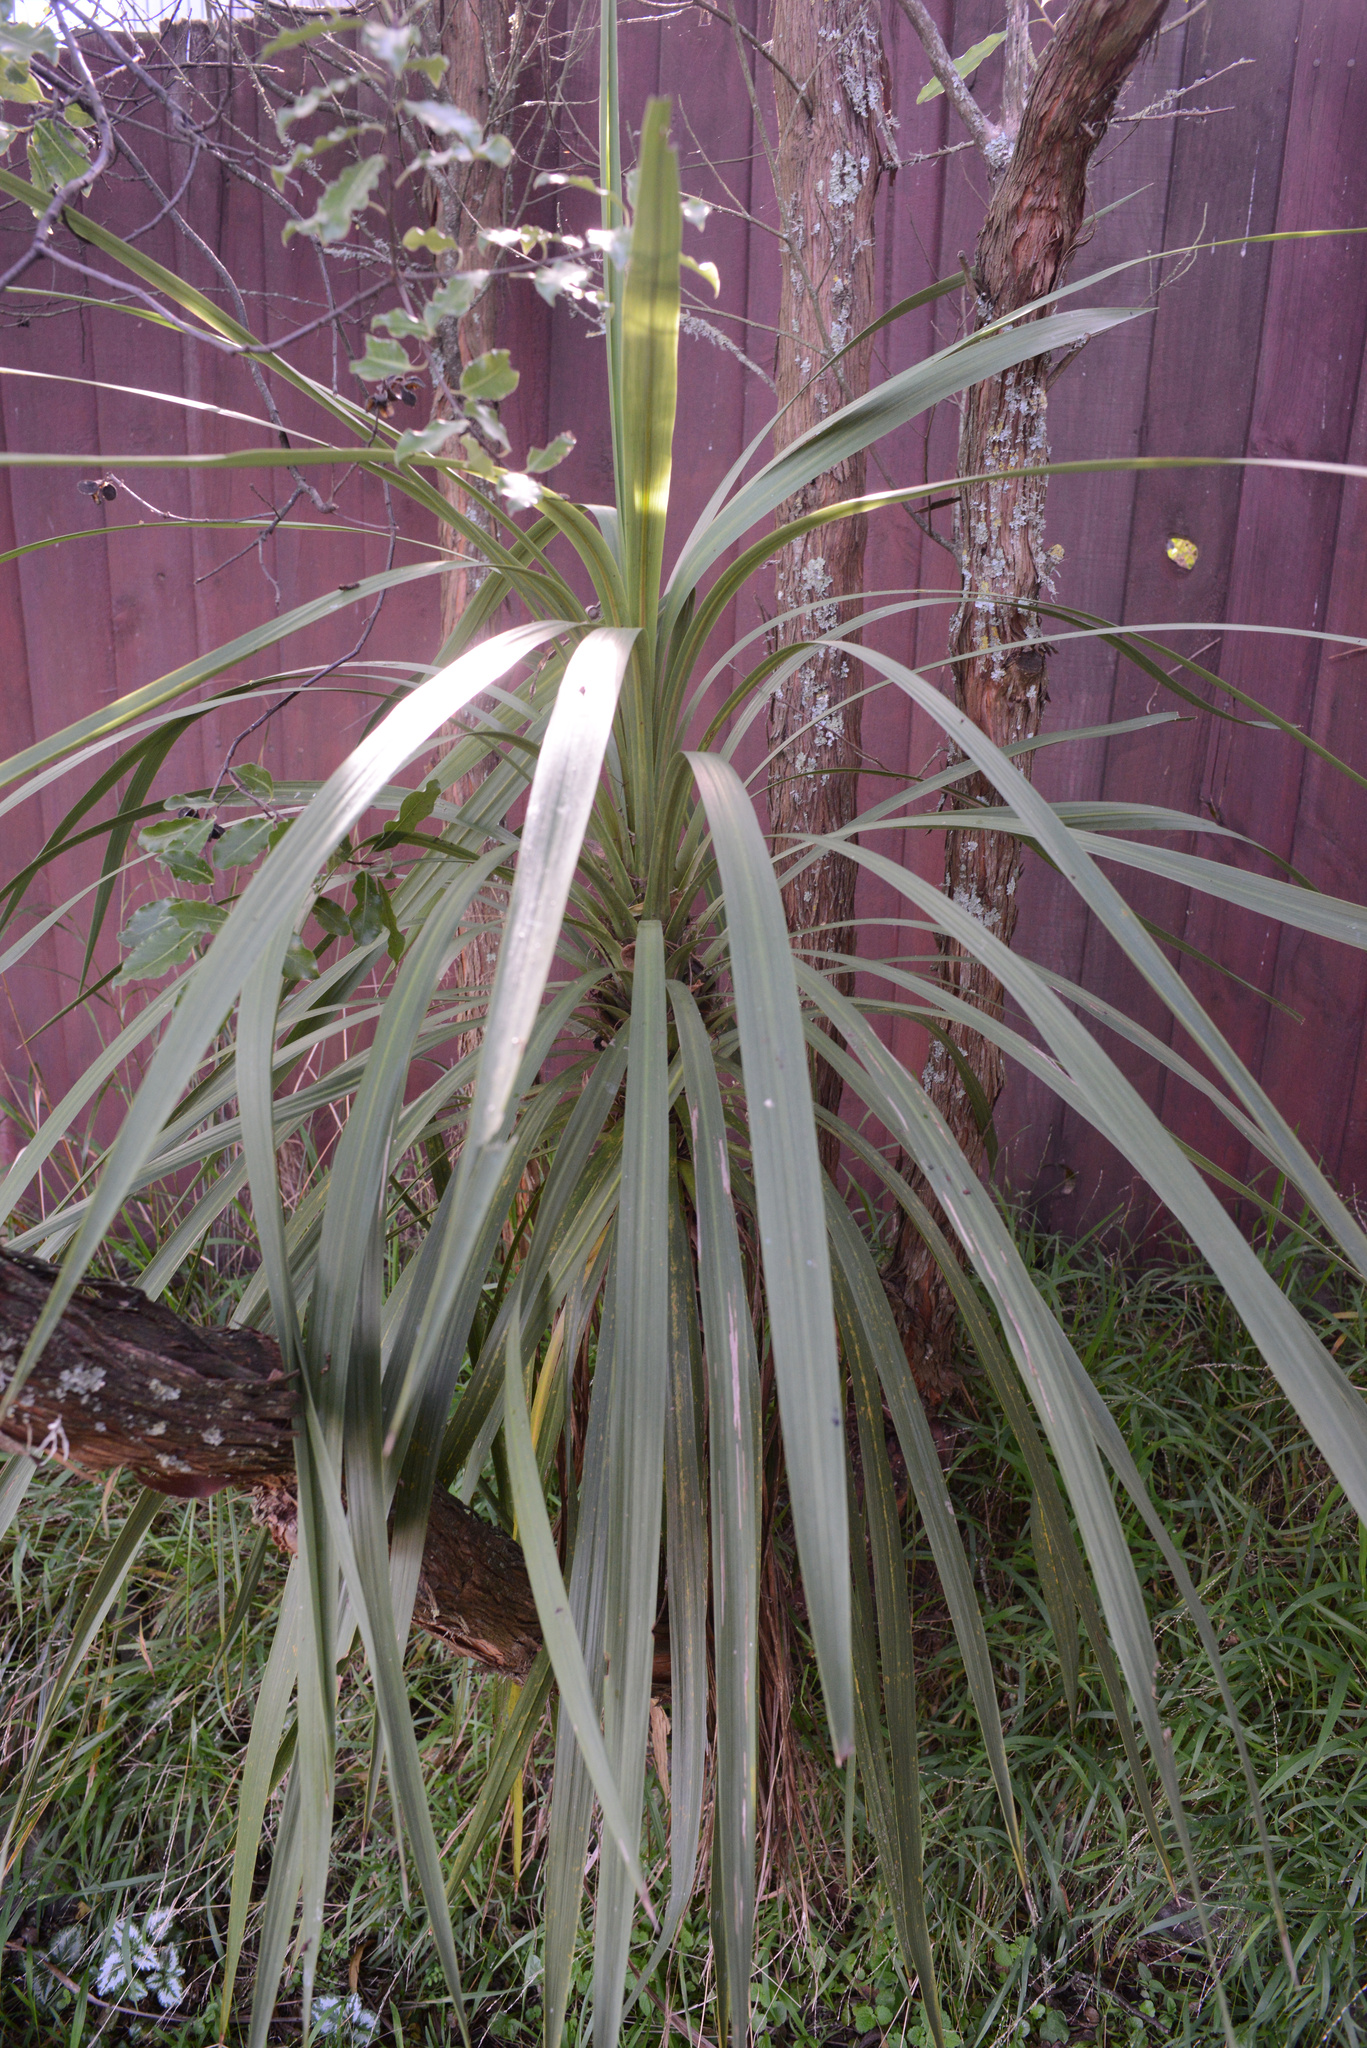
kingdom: Plantae
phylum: Tracheophyta
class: Liliopsida
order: Asparagales
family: Asparagaceae
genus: Cordyline
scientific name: Cordyline australis
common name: Cabbage-palm
